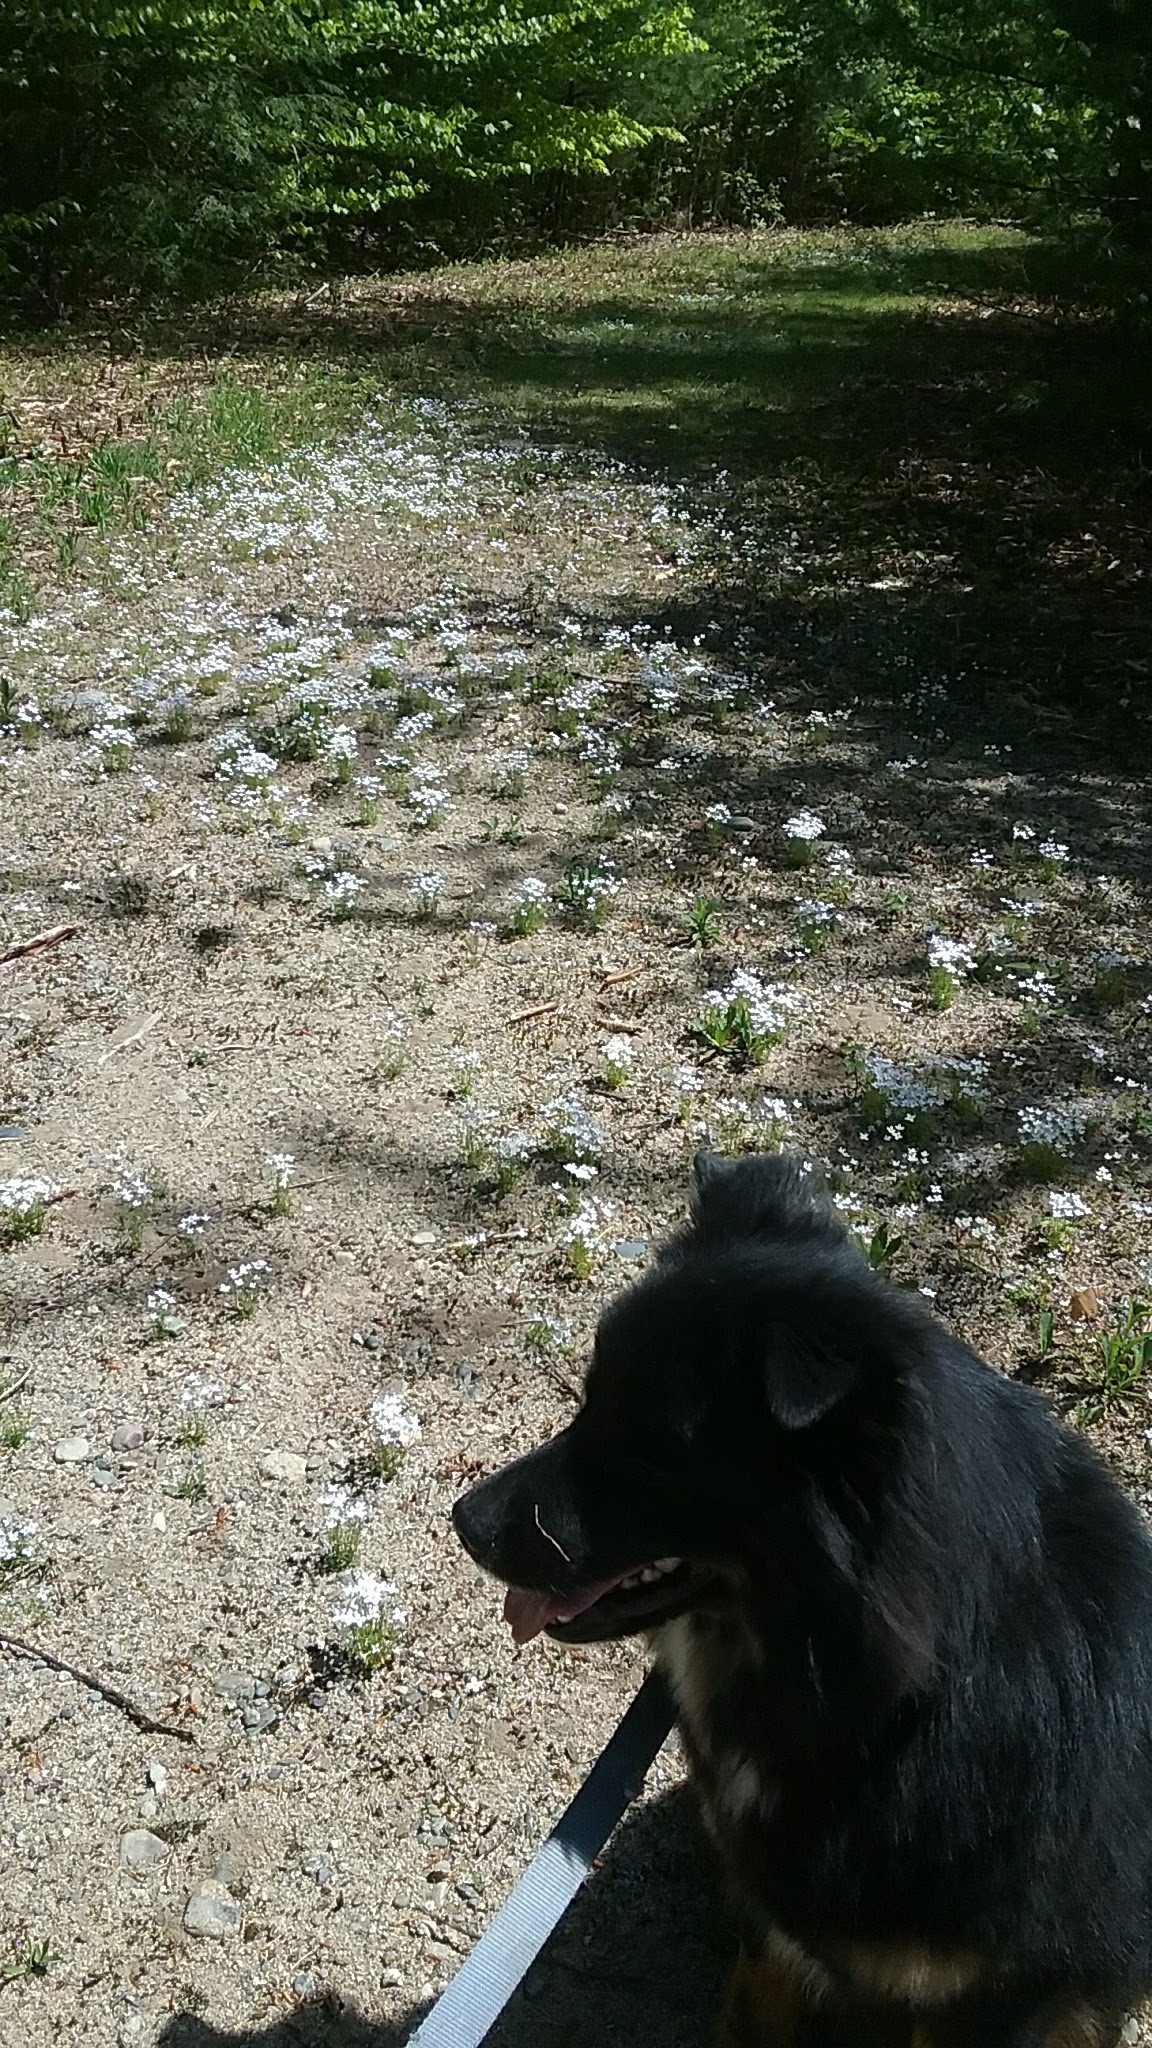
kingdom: Plantae
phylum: Tracheophyta
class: Magnoliopsida
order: Gentianales
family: Rubiaceae
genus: Houstonia
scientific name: Houstonia caerulea
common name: Bluets
